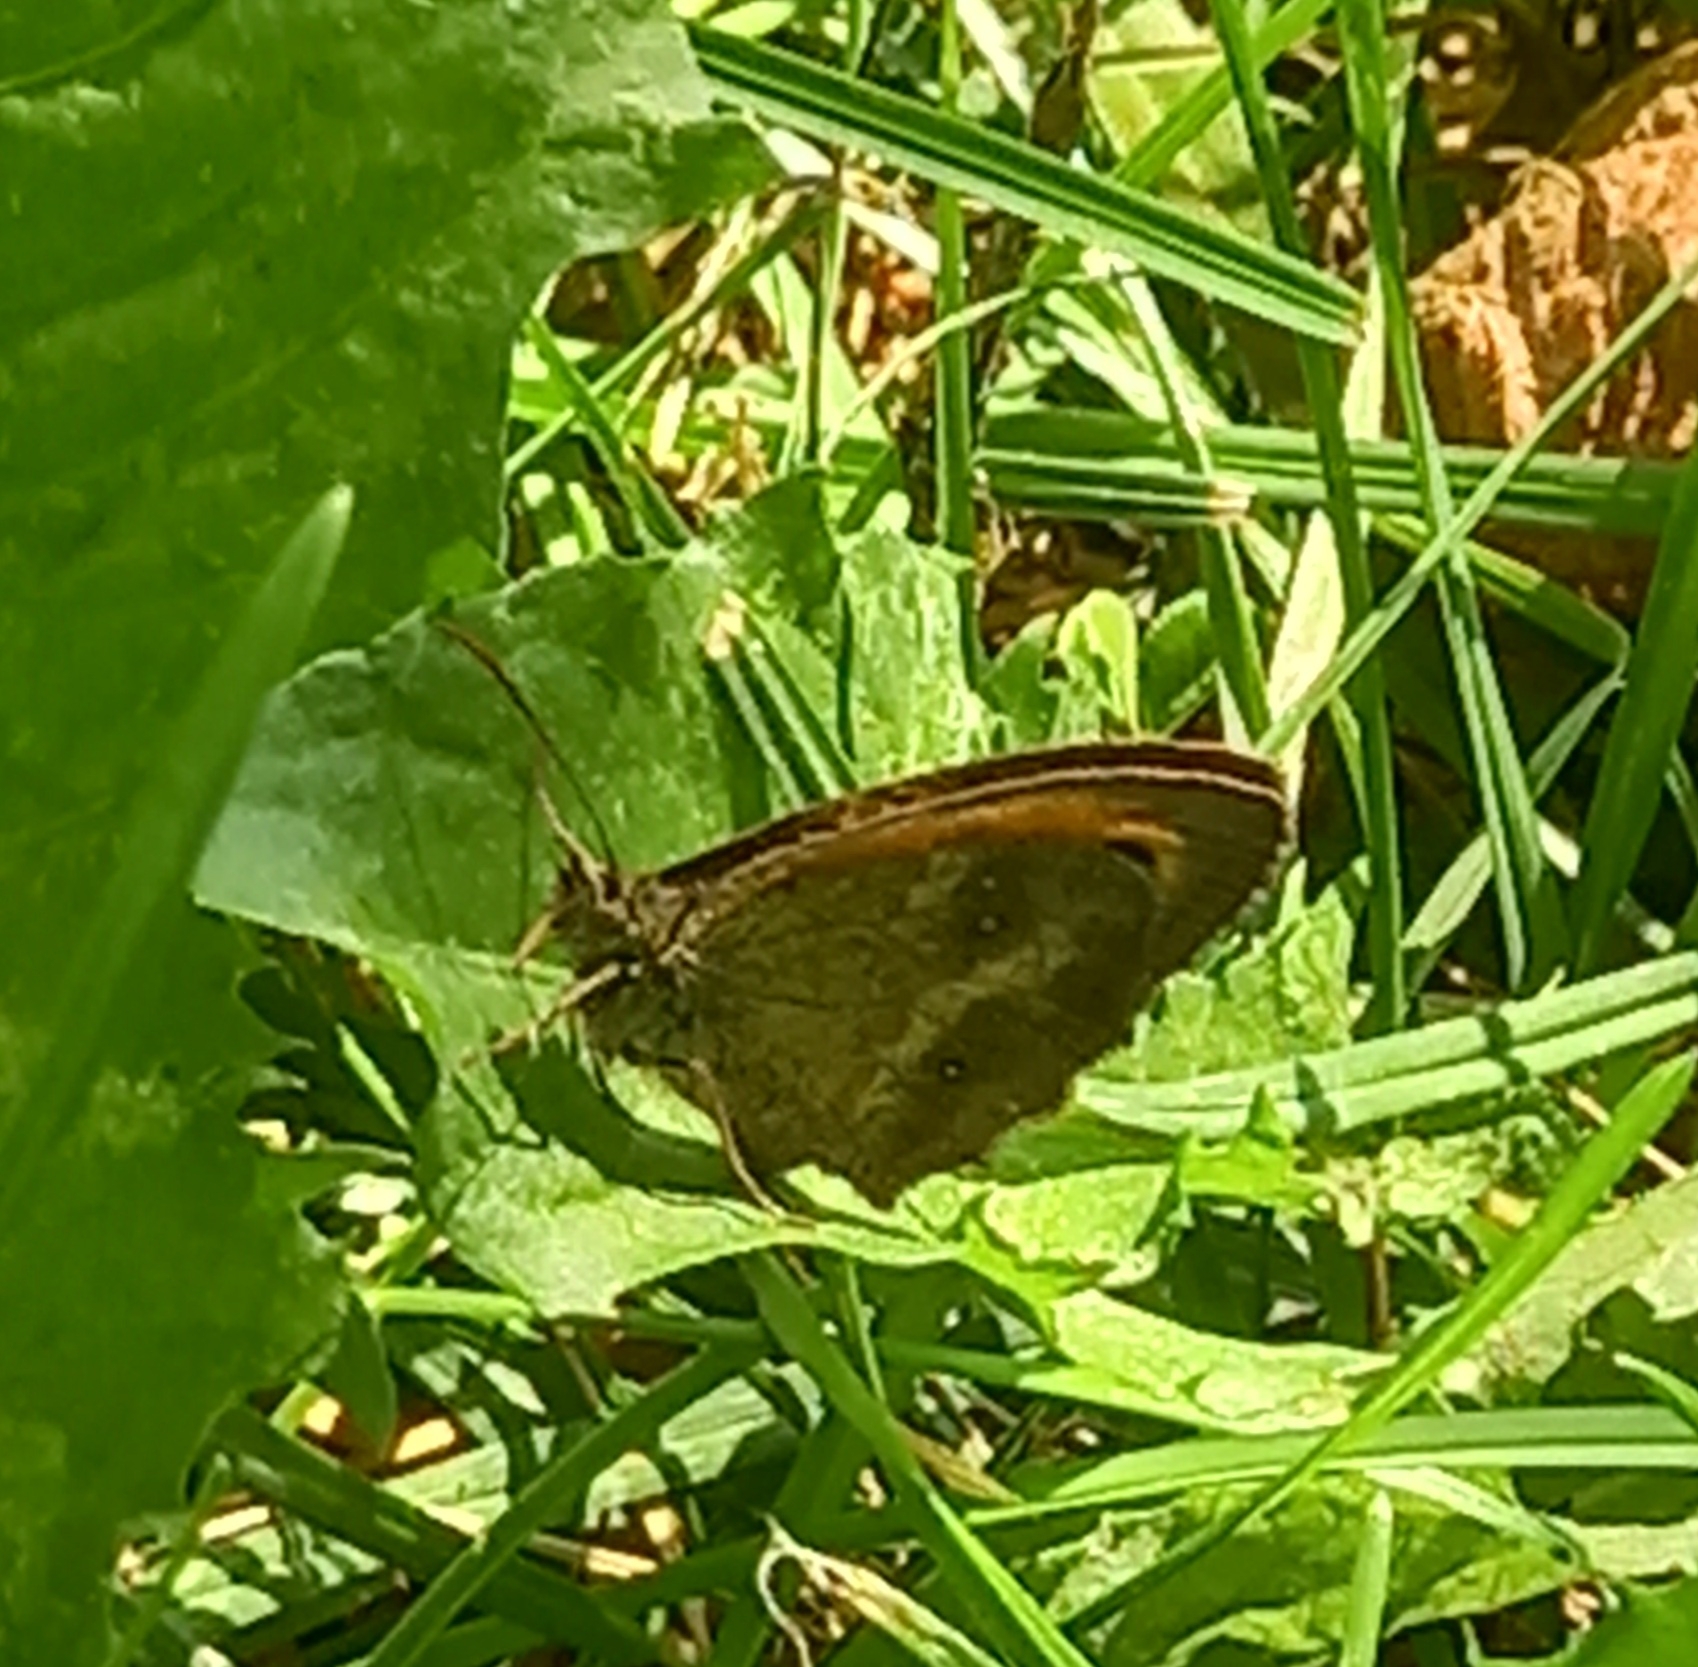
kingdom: Animalia
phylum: Arthropoda
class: Insecta
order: Lepidoptera
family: Nymphalidae
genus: Pyronia
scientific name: Pyronia tithonus
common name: Gatekeeper
